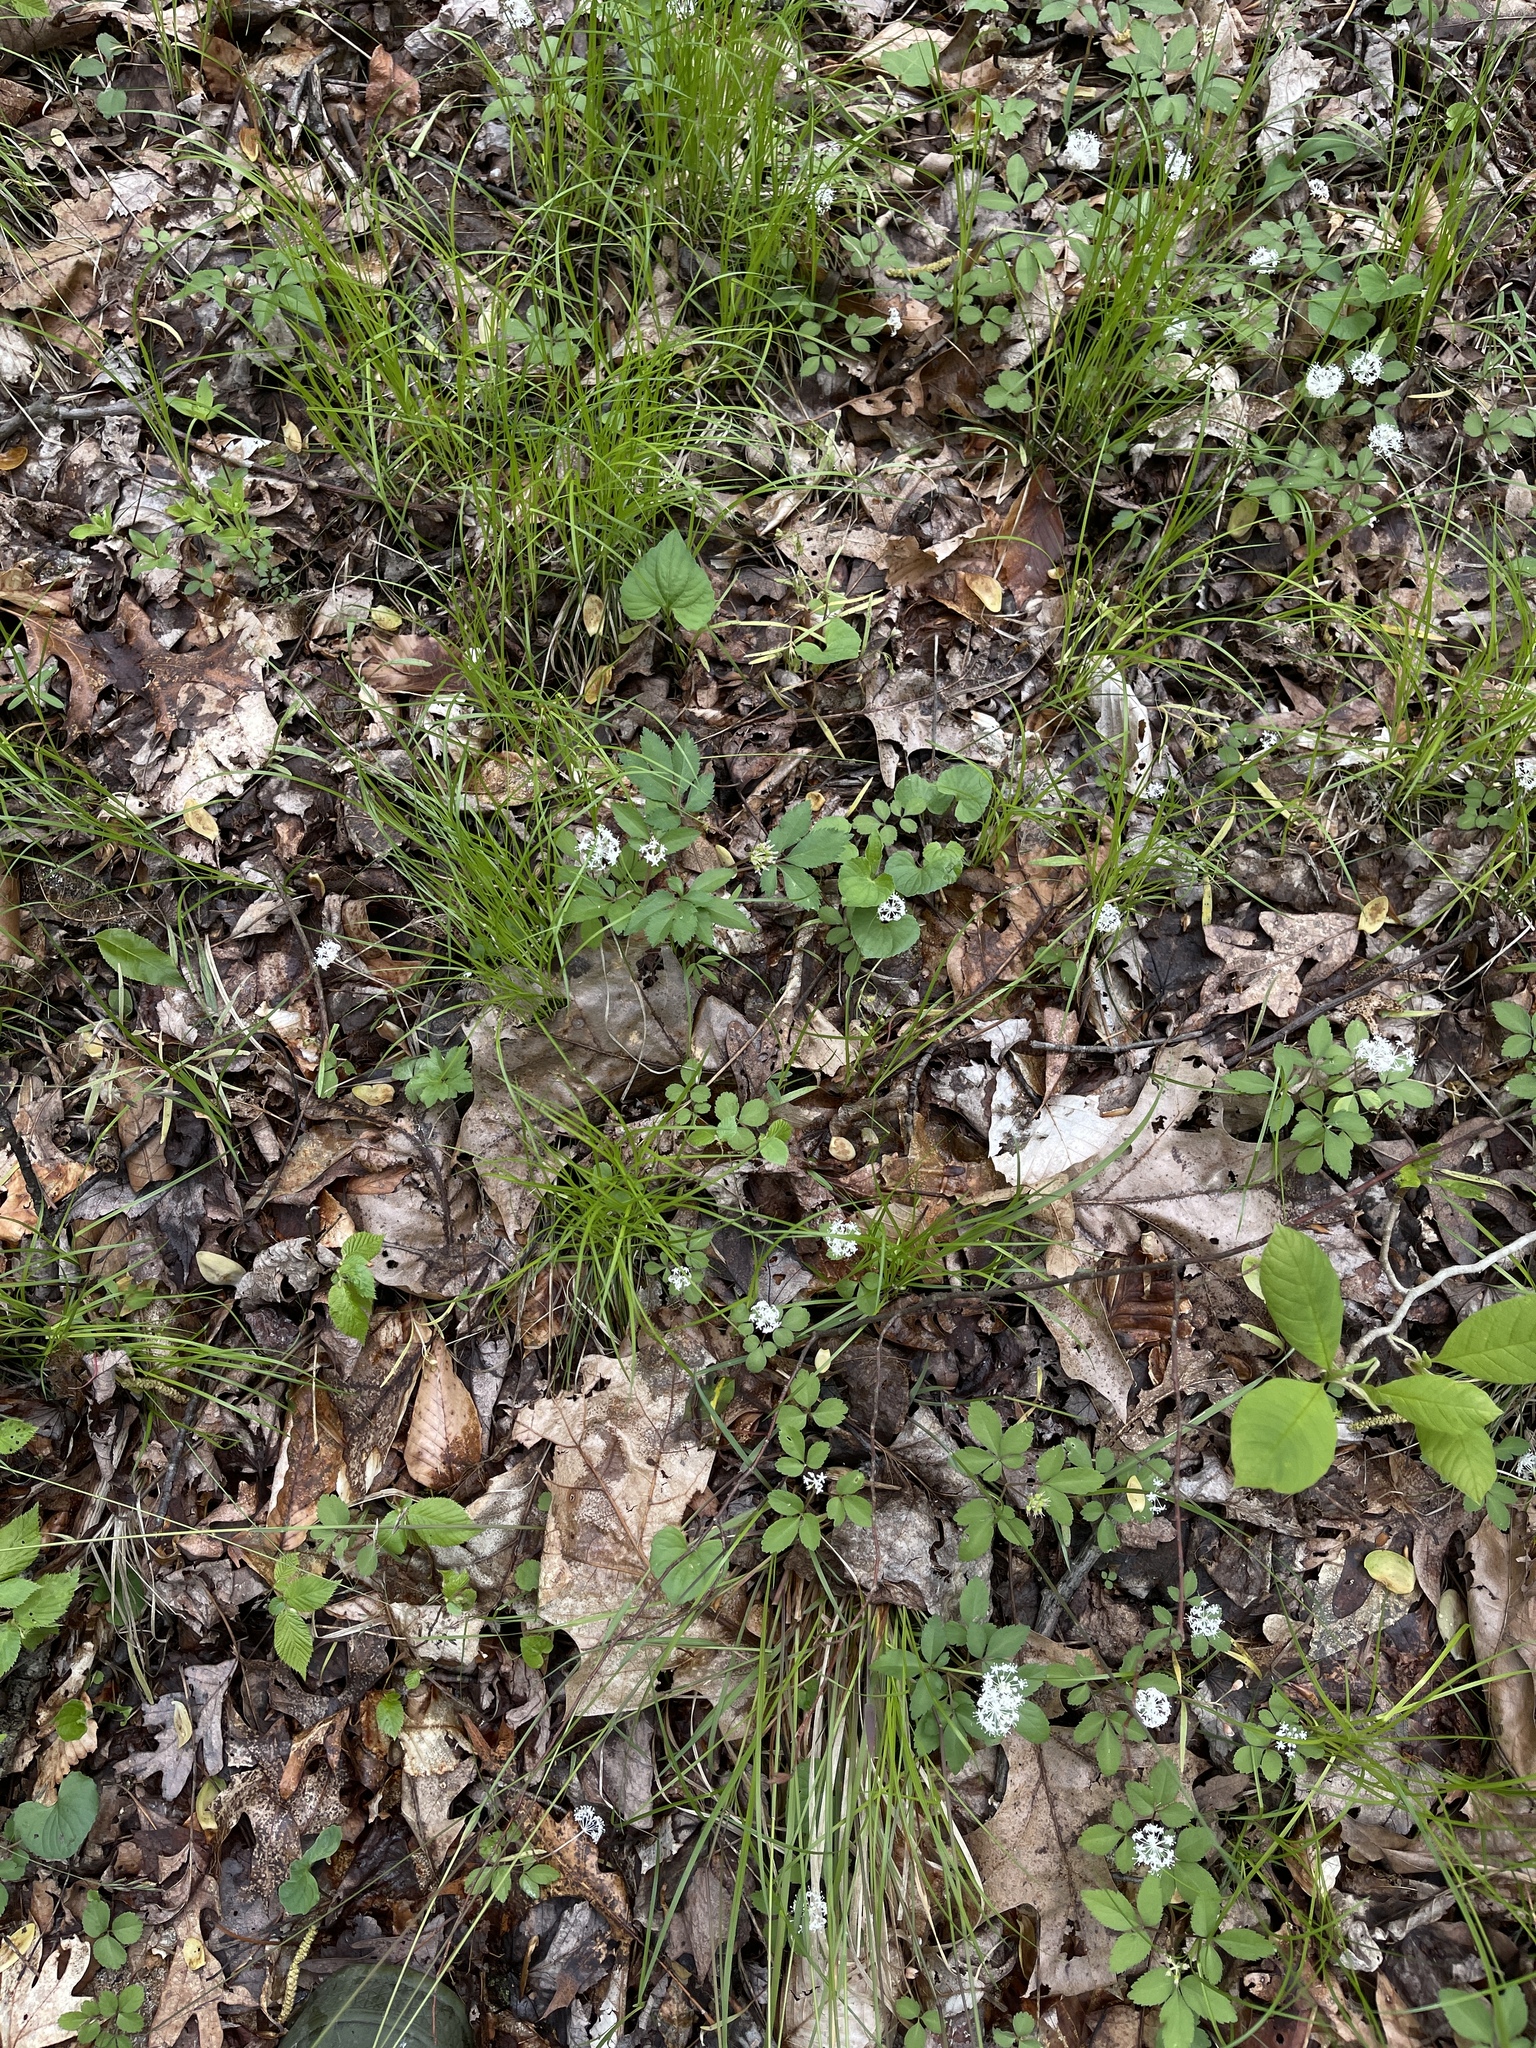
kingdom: Plantae
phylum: Tracheophyta
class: Magnoliopsida
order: Apiales
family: Araliaceae
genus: Panax
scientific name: Panax trifolius
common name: Dwarf ginseng
